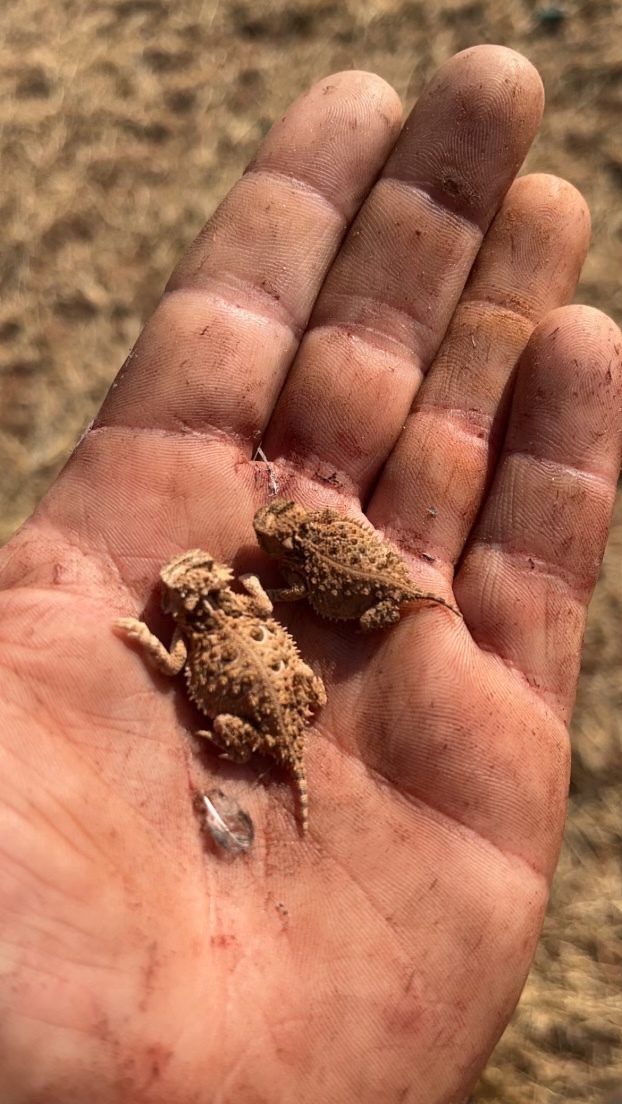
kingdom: Animalia
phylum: Chordata
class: Squamata
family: Phrynosomatidae
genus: Phrynosoma
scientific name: Phrynosoma cornutum
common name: Texas horned lizard
